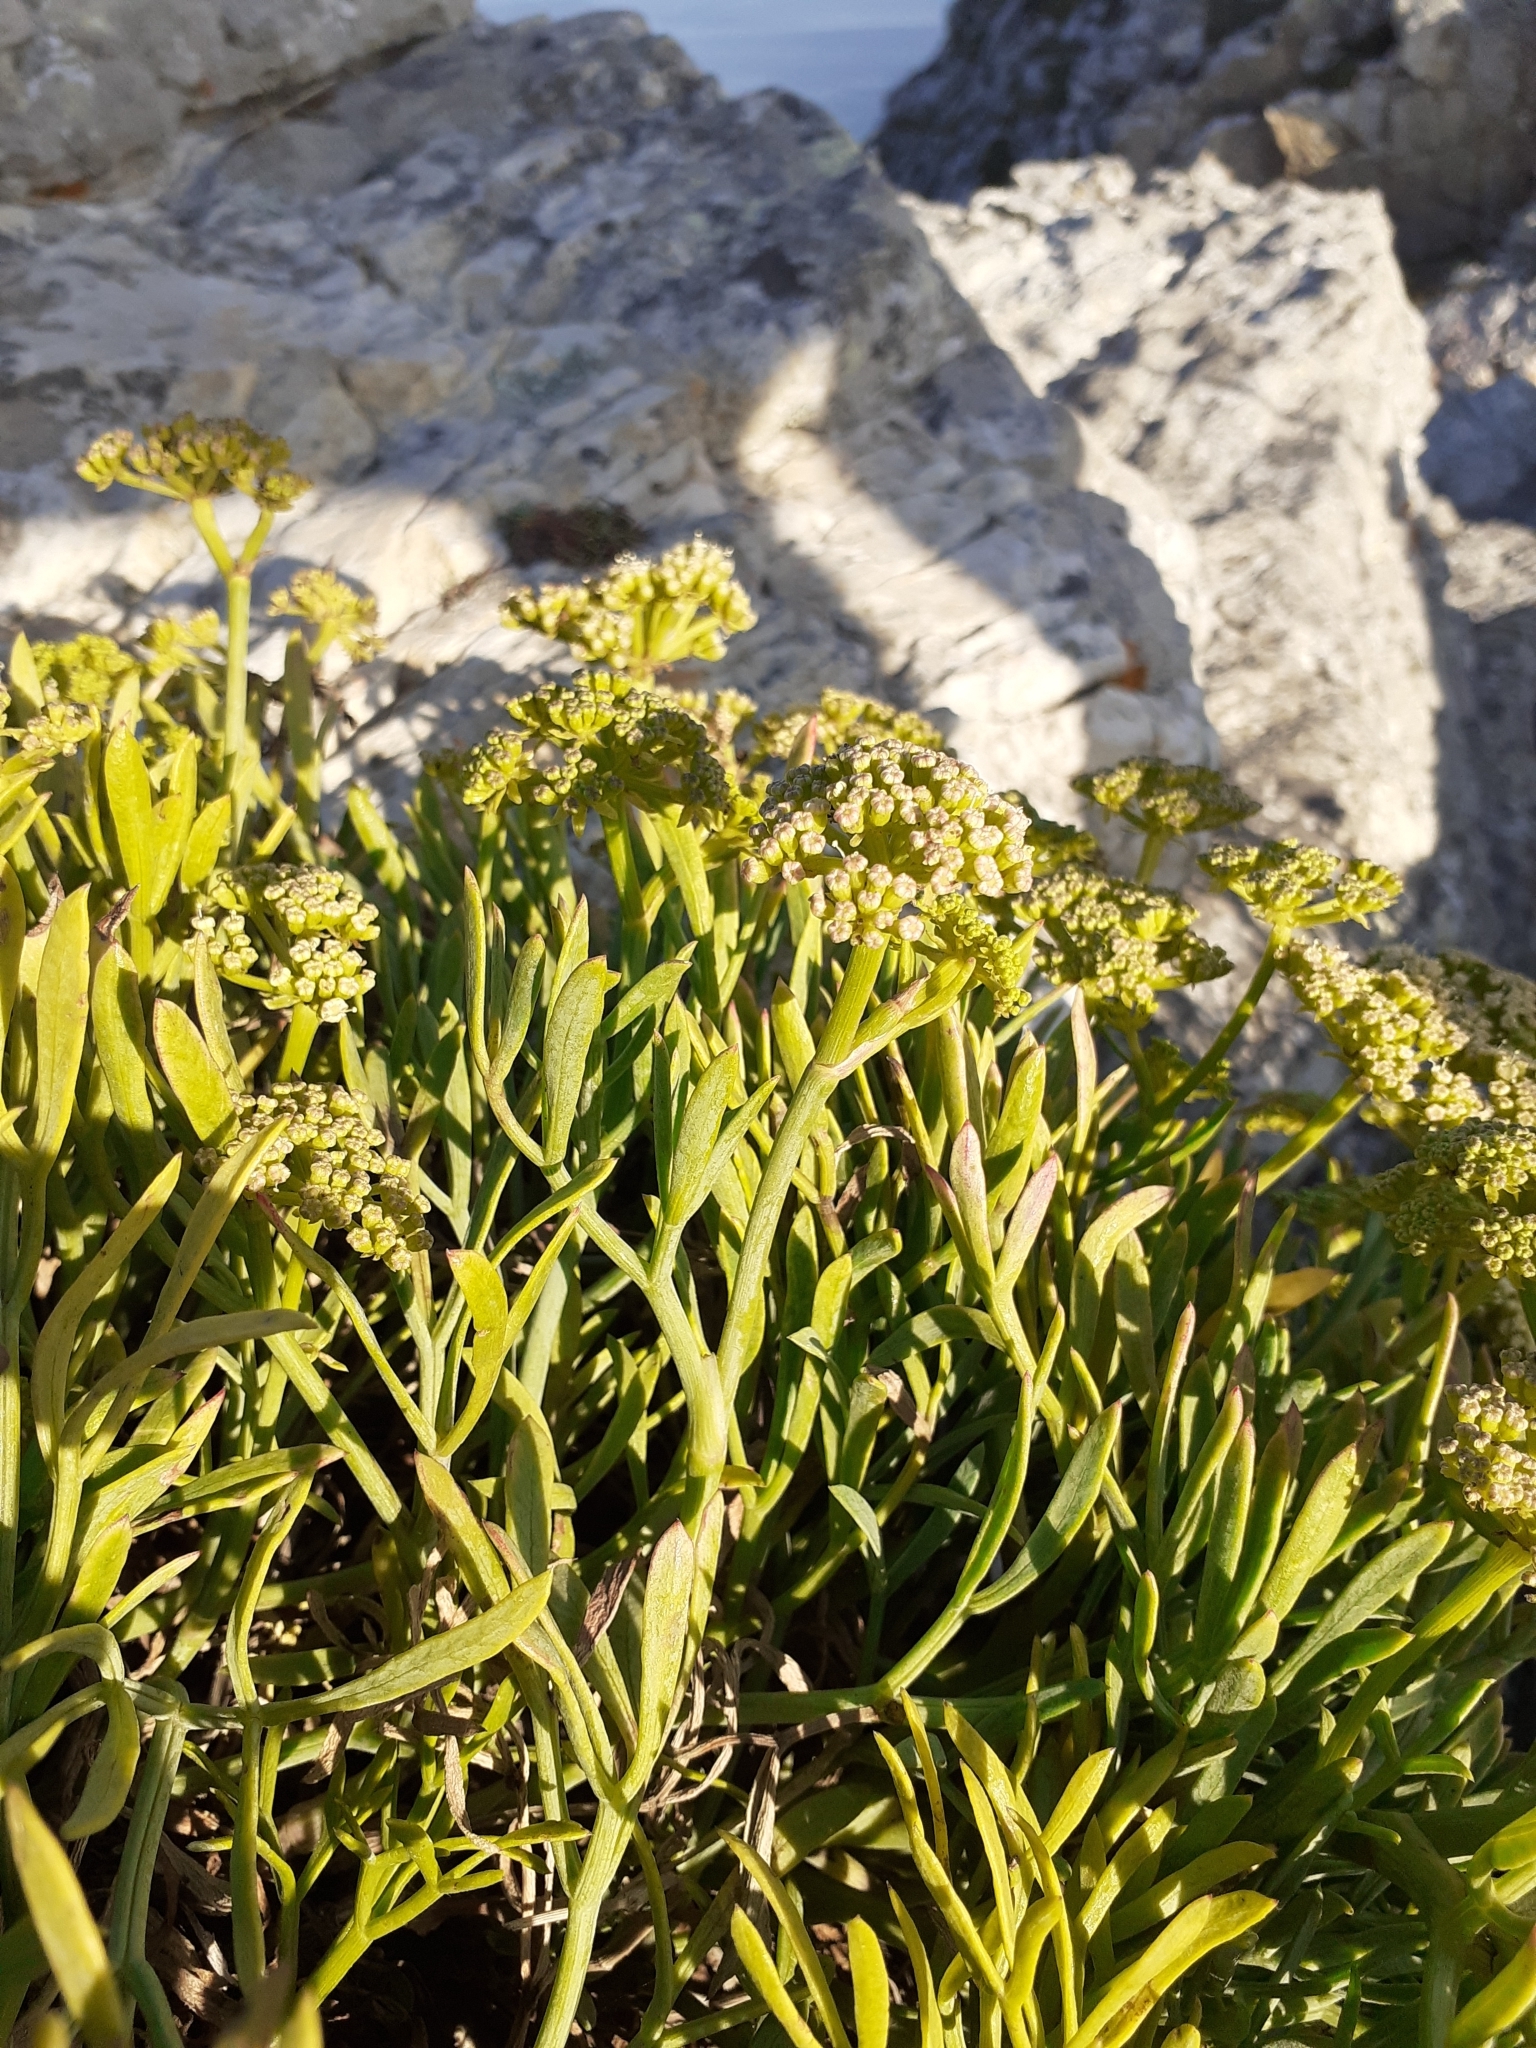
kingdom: Plantae
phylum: Tracheophyta
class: Magnoliopsida
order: Apiales
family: Apiaceae
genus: Crithmum
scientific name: Crithmum maritimum
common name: Rock samphire
